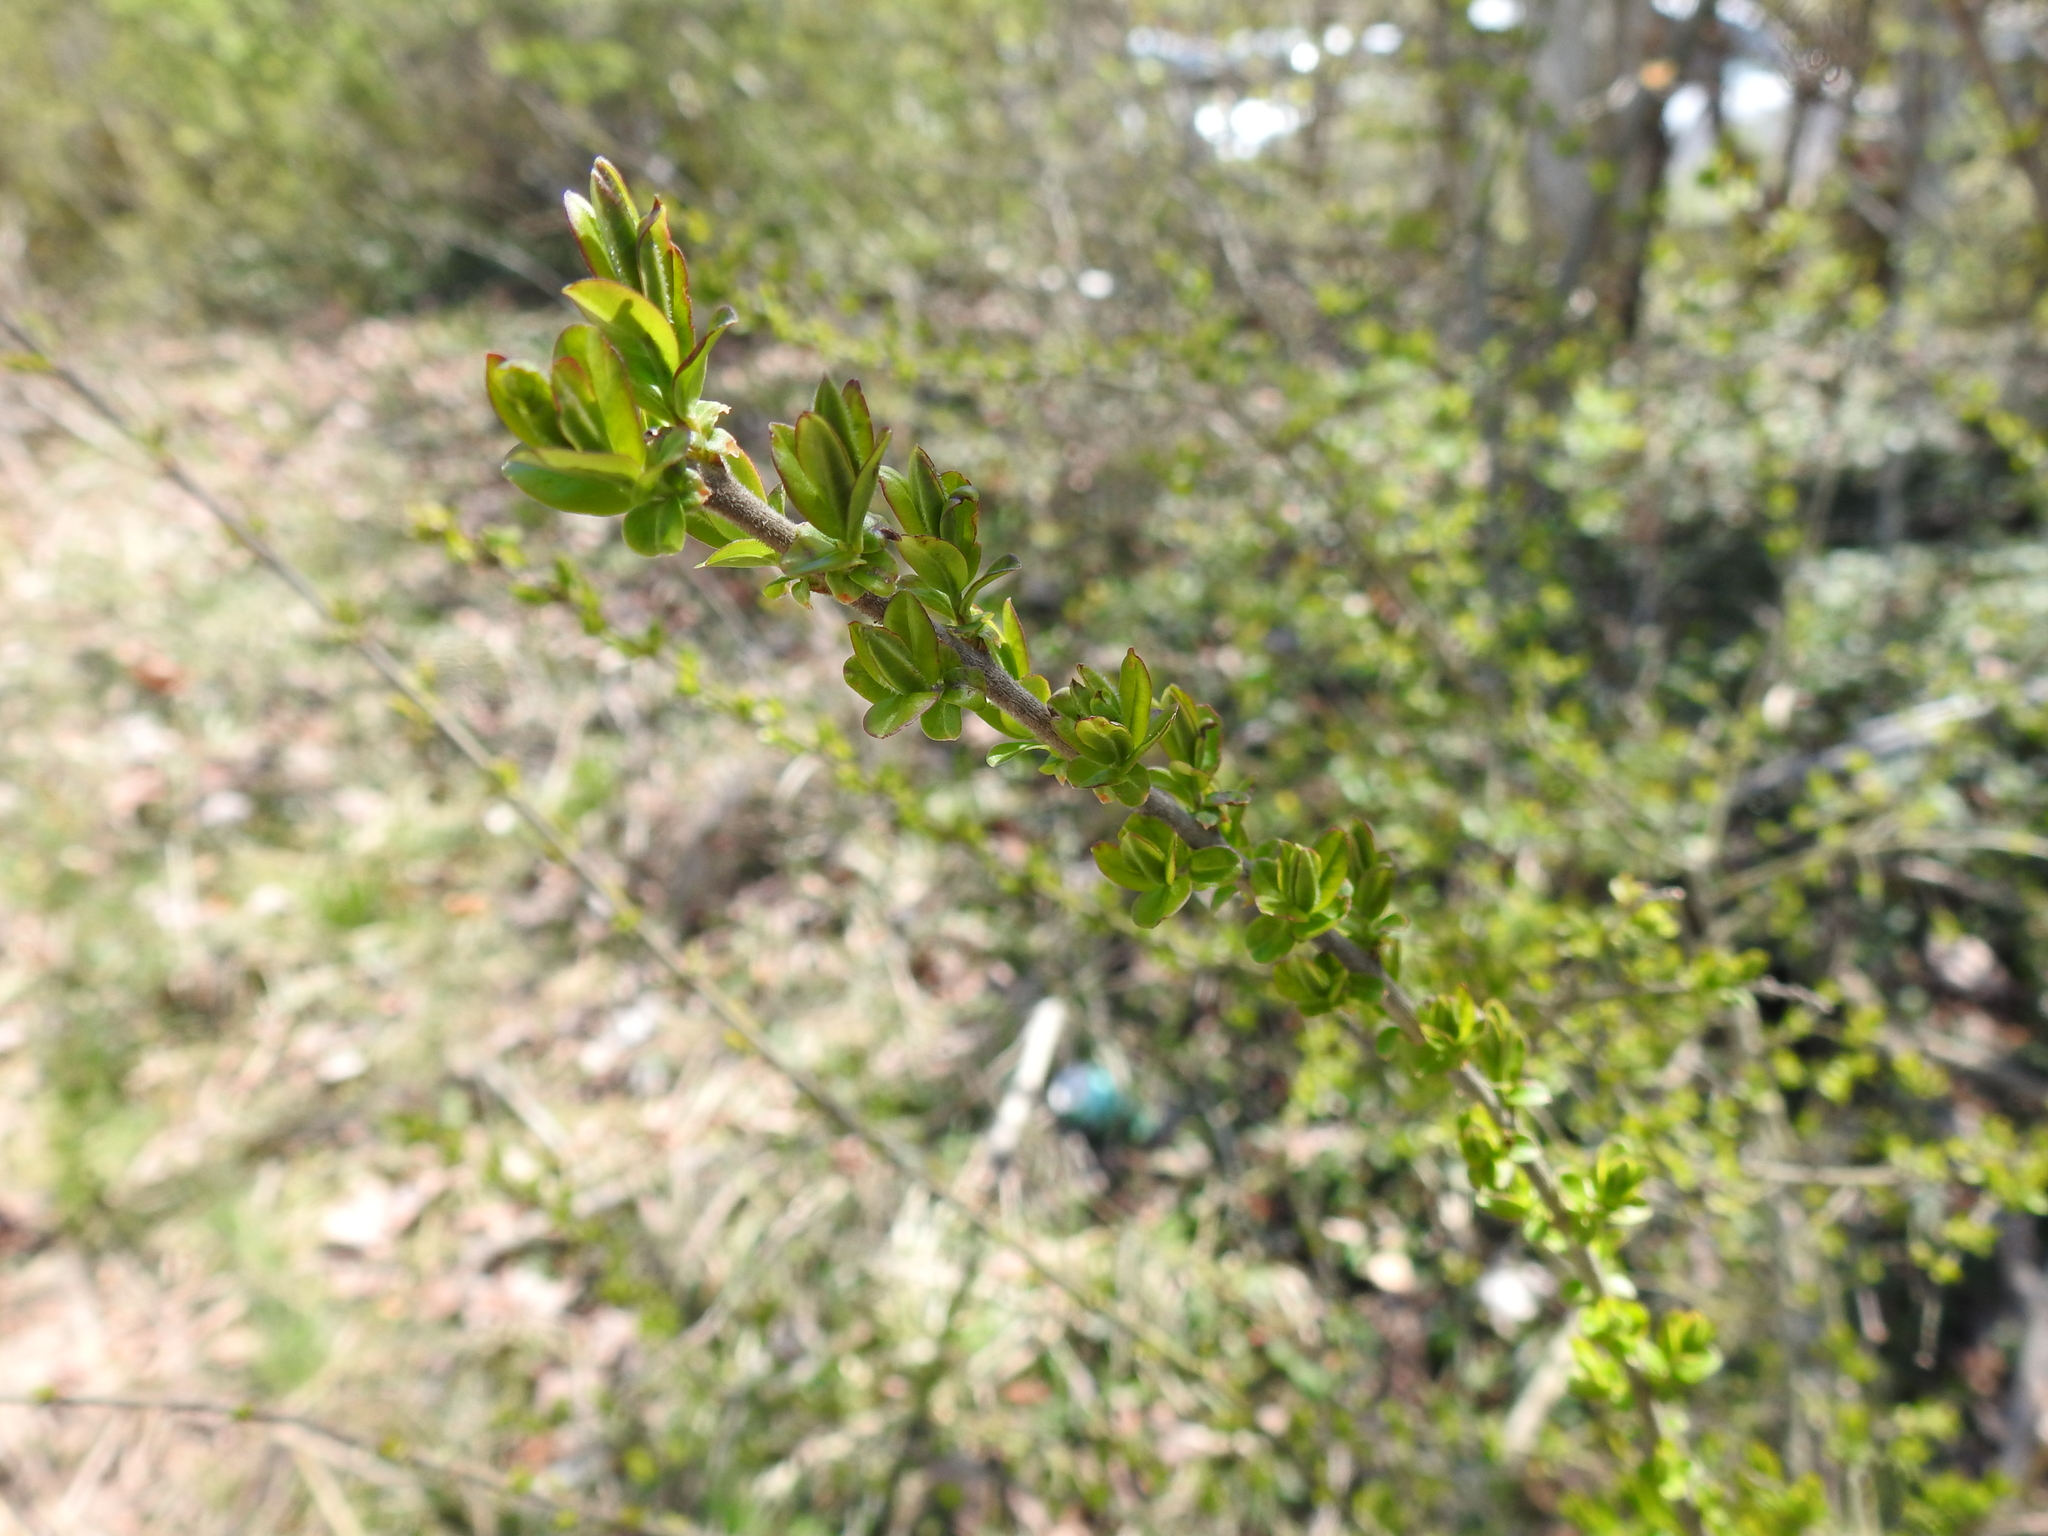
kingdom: Plantae
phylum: Tracheophyta
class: Magnoliopsida
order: Lamiales
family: Oleaceae
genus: Ligustrum
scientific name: Ligustrum obtusifolium
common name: Border privet
